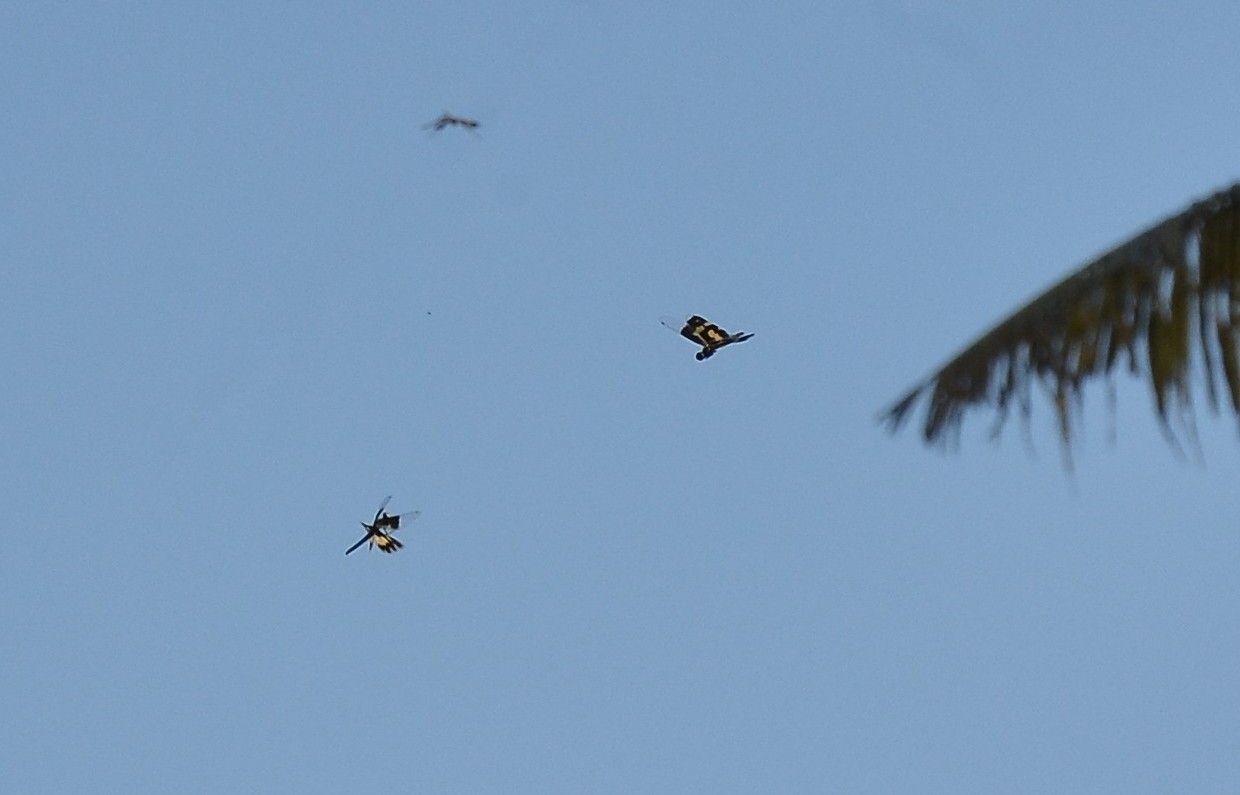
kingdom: Animalia
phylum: Arthropoda
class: Insecta
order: Odonata
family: Libellulidae
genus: Rhyothemis
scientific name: Rhyothemis variegata
